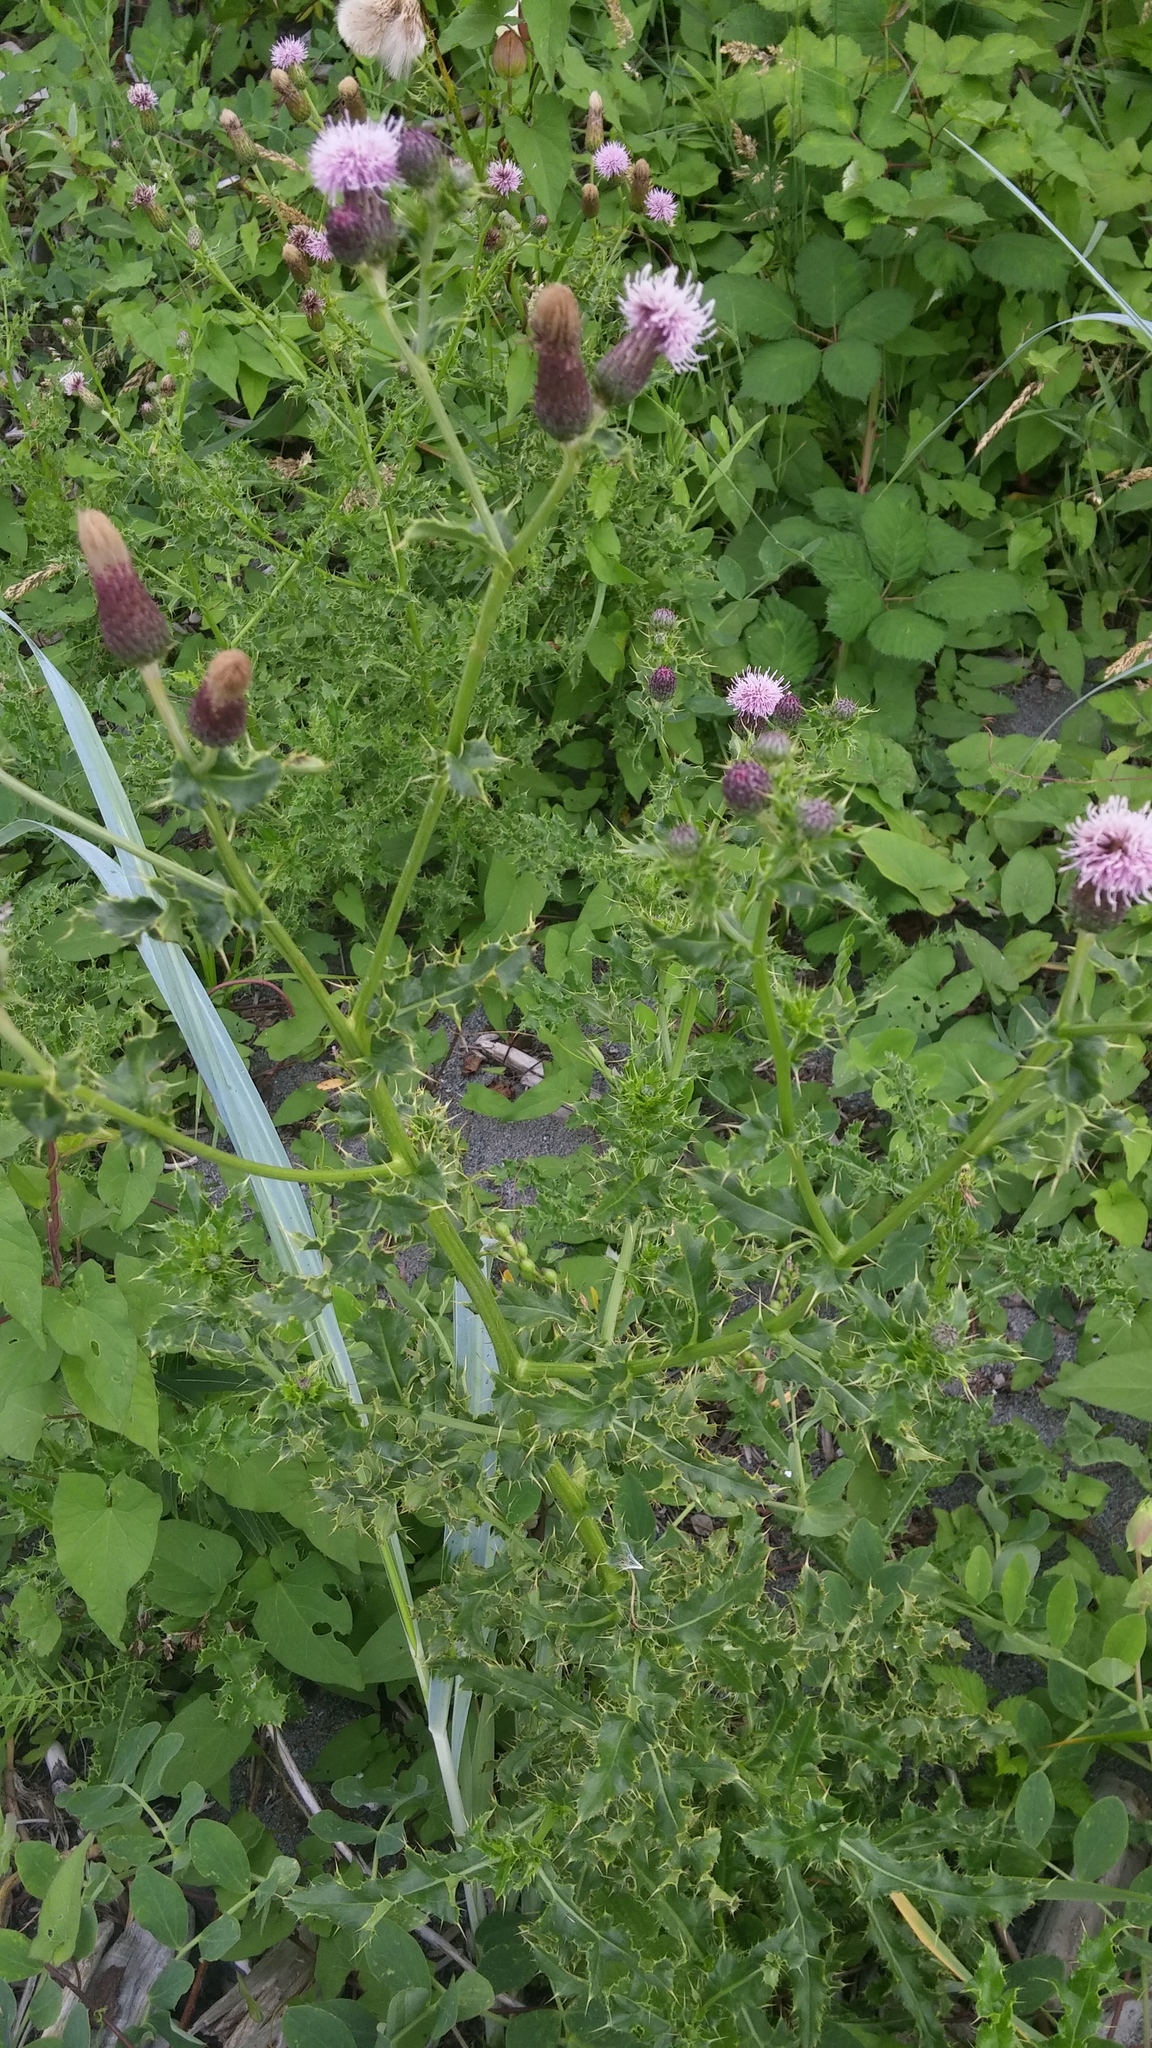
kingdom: Plantae
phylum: Tracheophyta
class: Magnoliopsida
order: Asterales
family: Asteraceae
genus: Cirsium
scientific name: Cirsium arvense
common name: Creeping thistle
